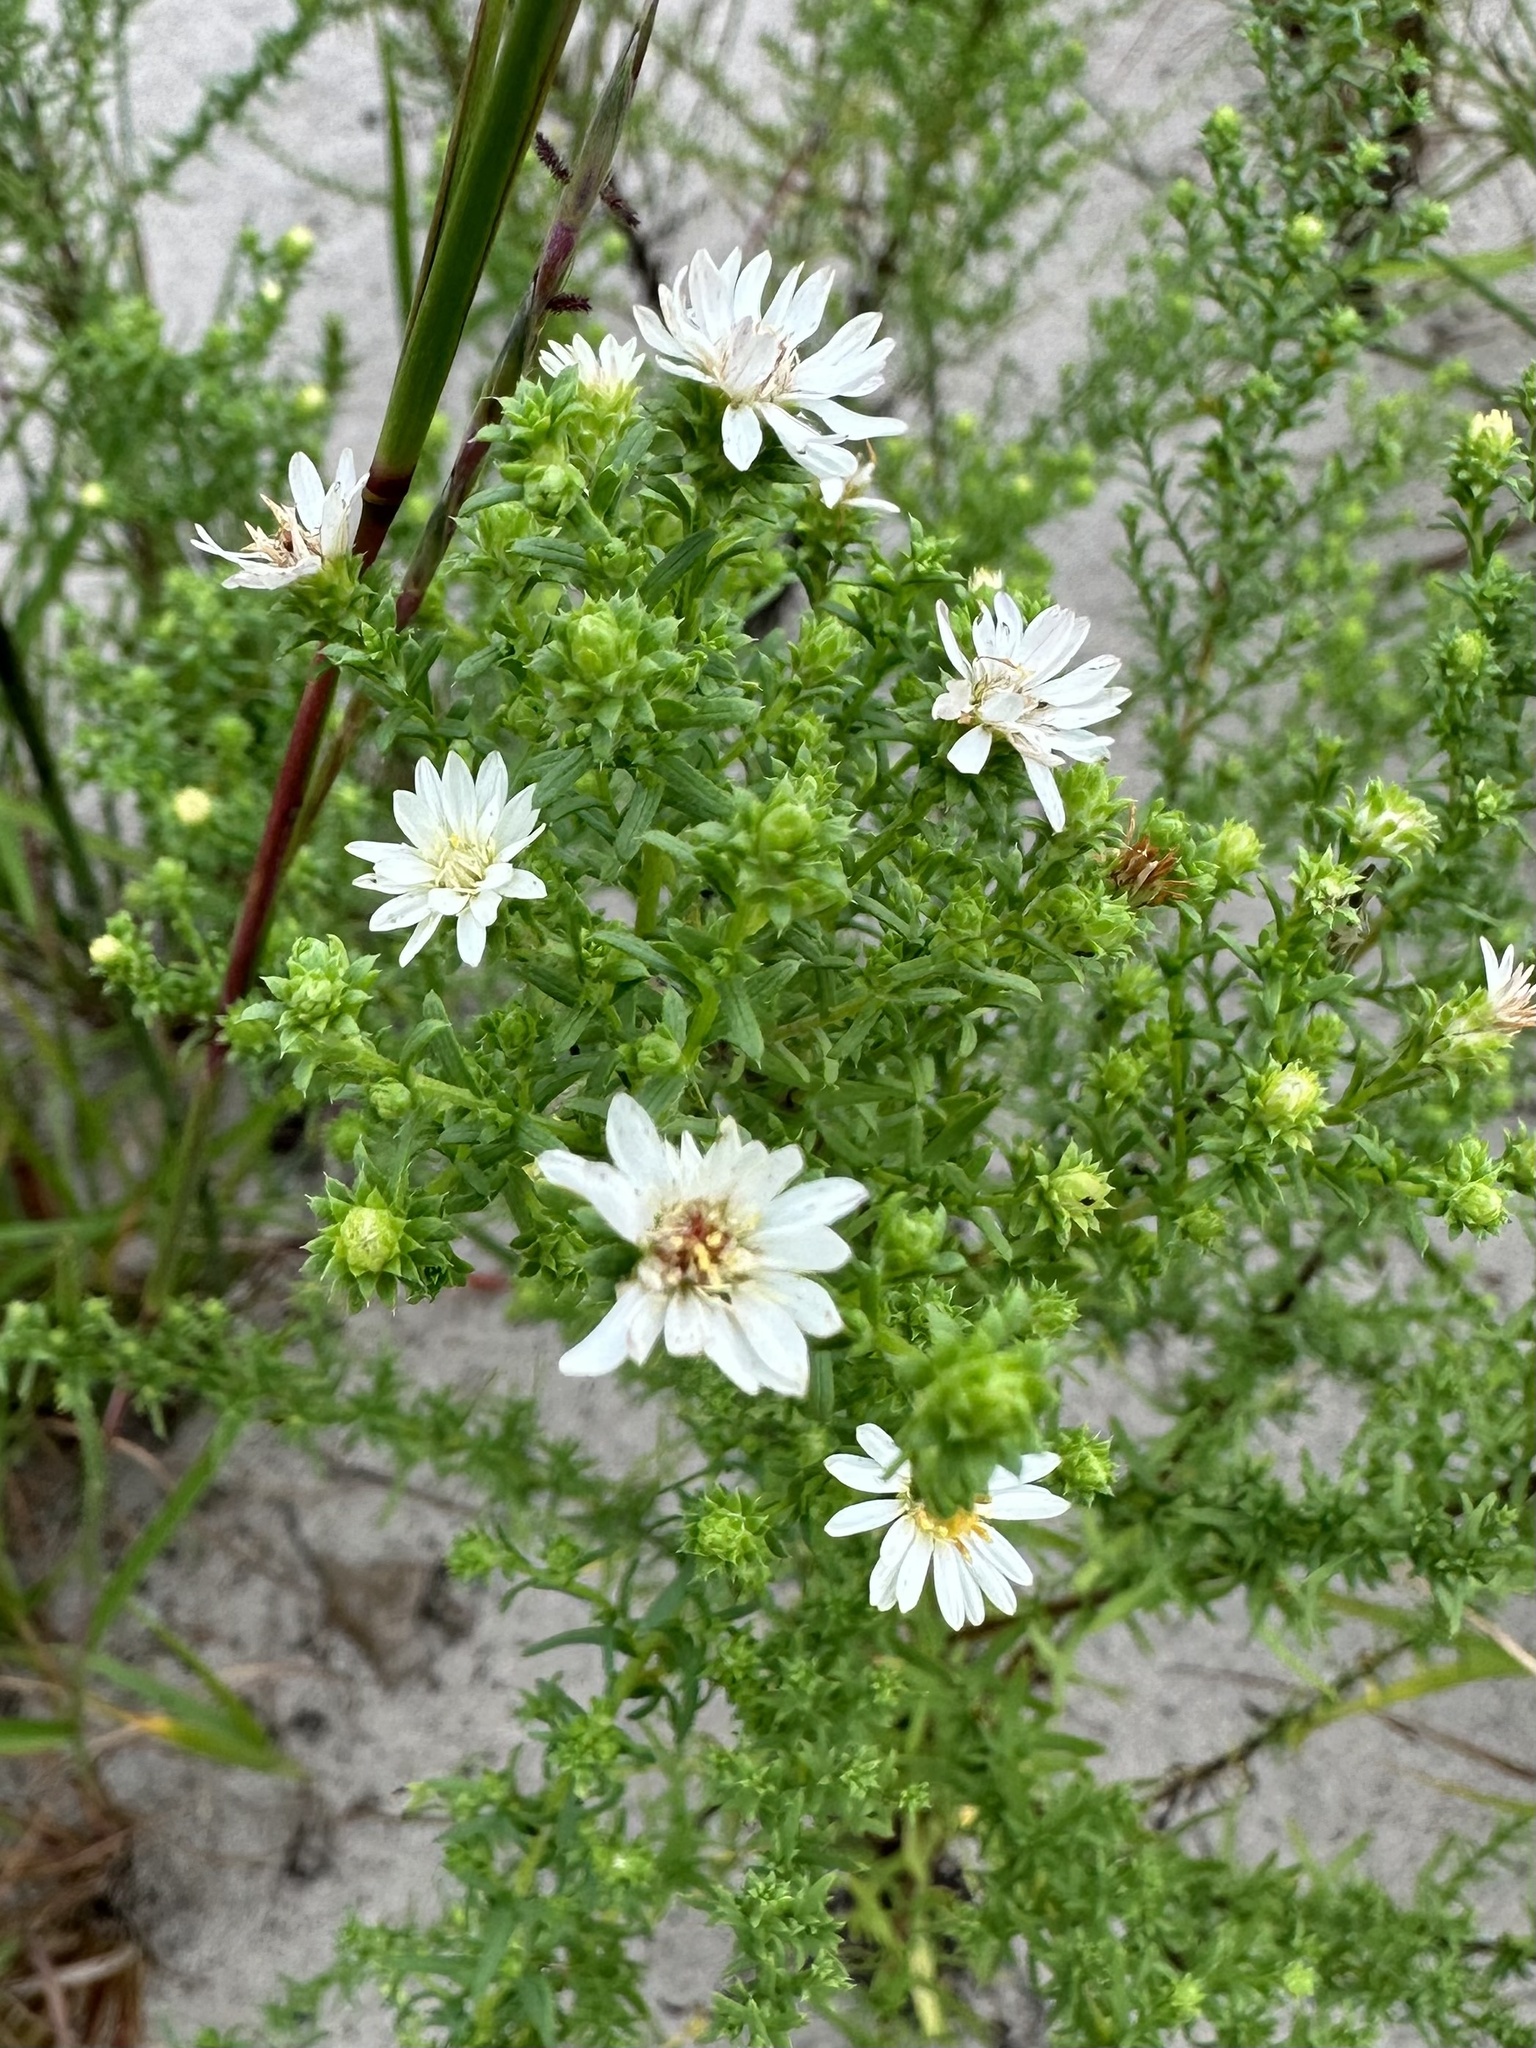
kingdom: Plantae
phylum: Tracheophyta
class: Magnoliopsida
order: Asterales
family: Asteraceae
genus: Symphyotrichum
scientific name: Symphyotrichum ericoides
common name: Heath aster
